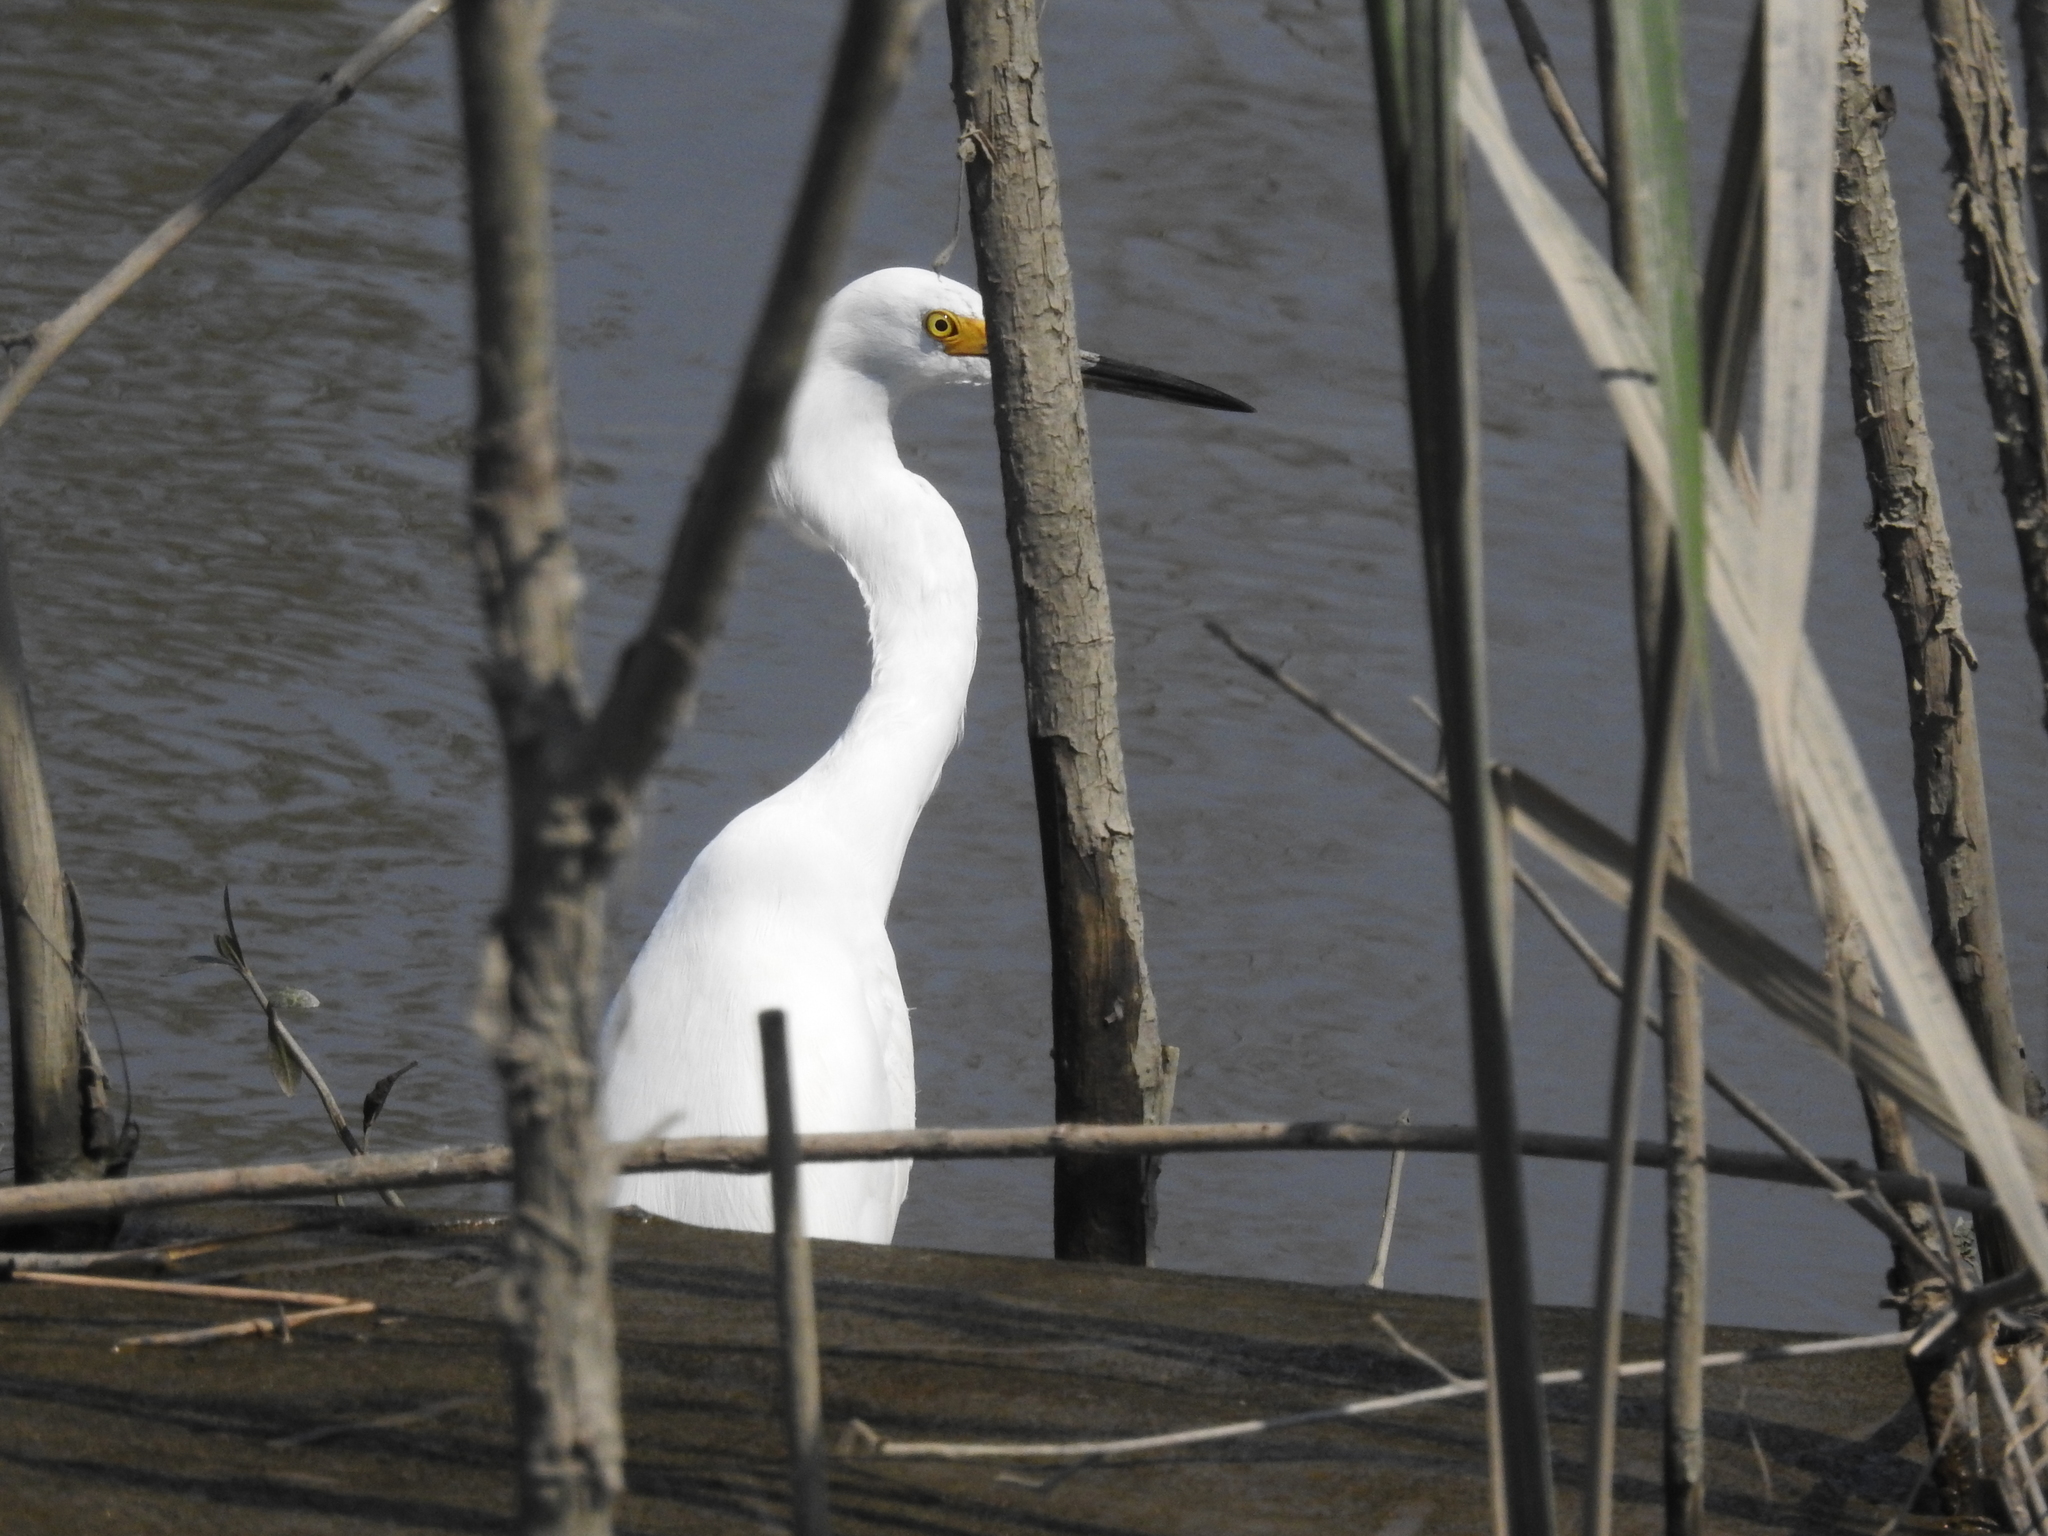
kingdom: Animalia
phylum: Chordata
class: Aves
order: Pelecaniformes
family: Ardeidae
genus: Egretta
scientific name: Egretta thula
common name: Snowy egret
